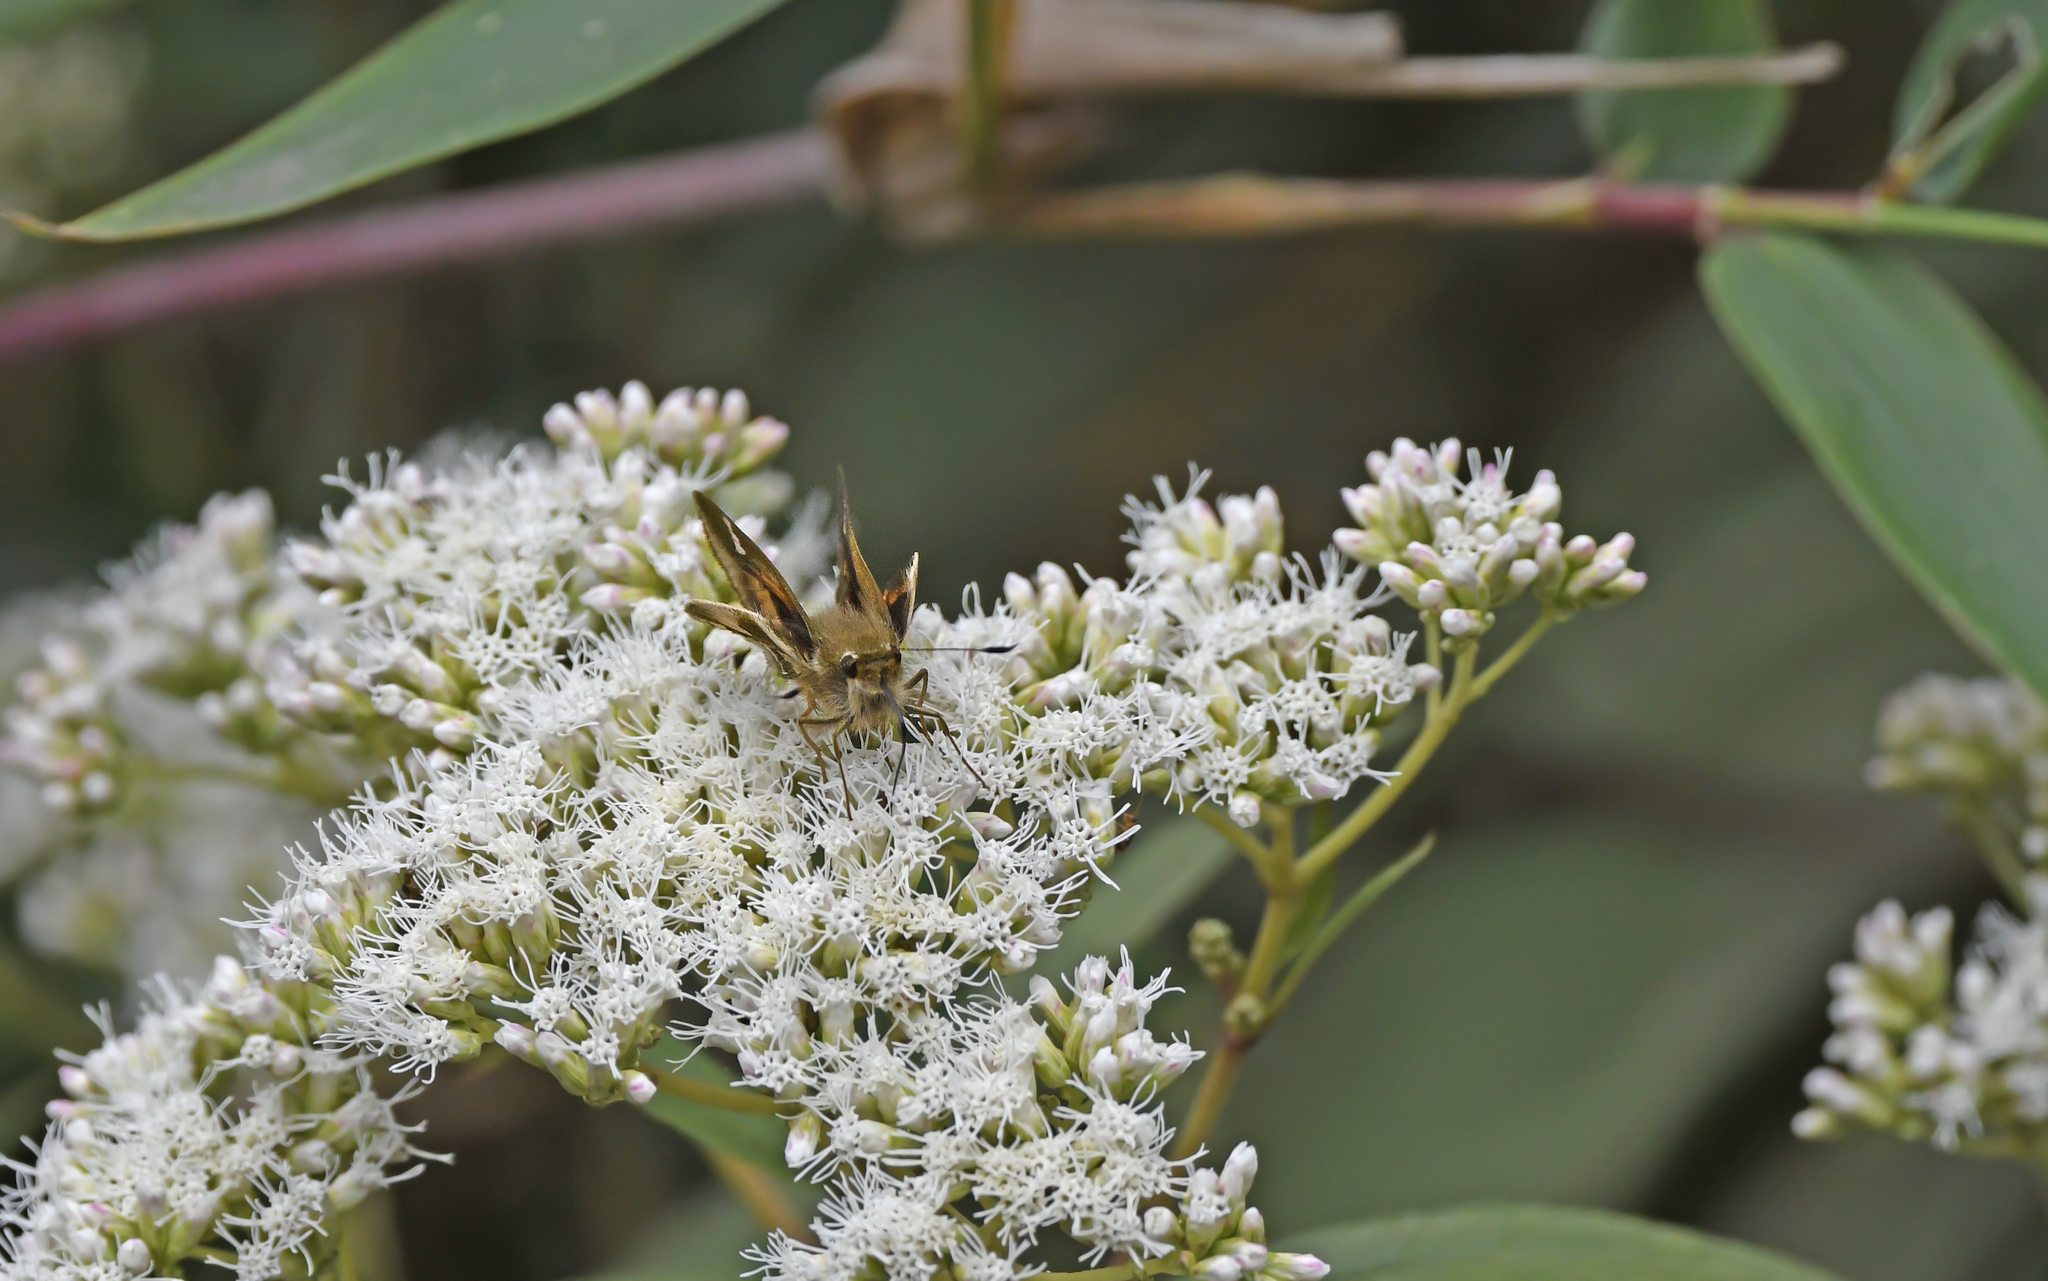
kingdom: Animalia
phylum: Arthropoda
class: Insecta
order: Lepidoptera
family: Hesperiidae
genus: Serdis
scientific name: Serdis viridicans
